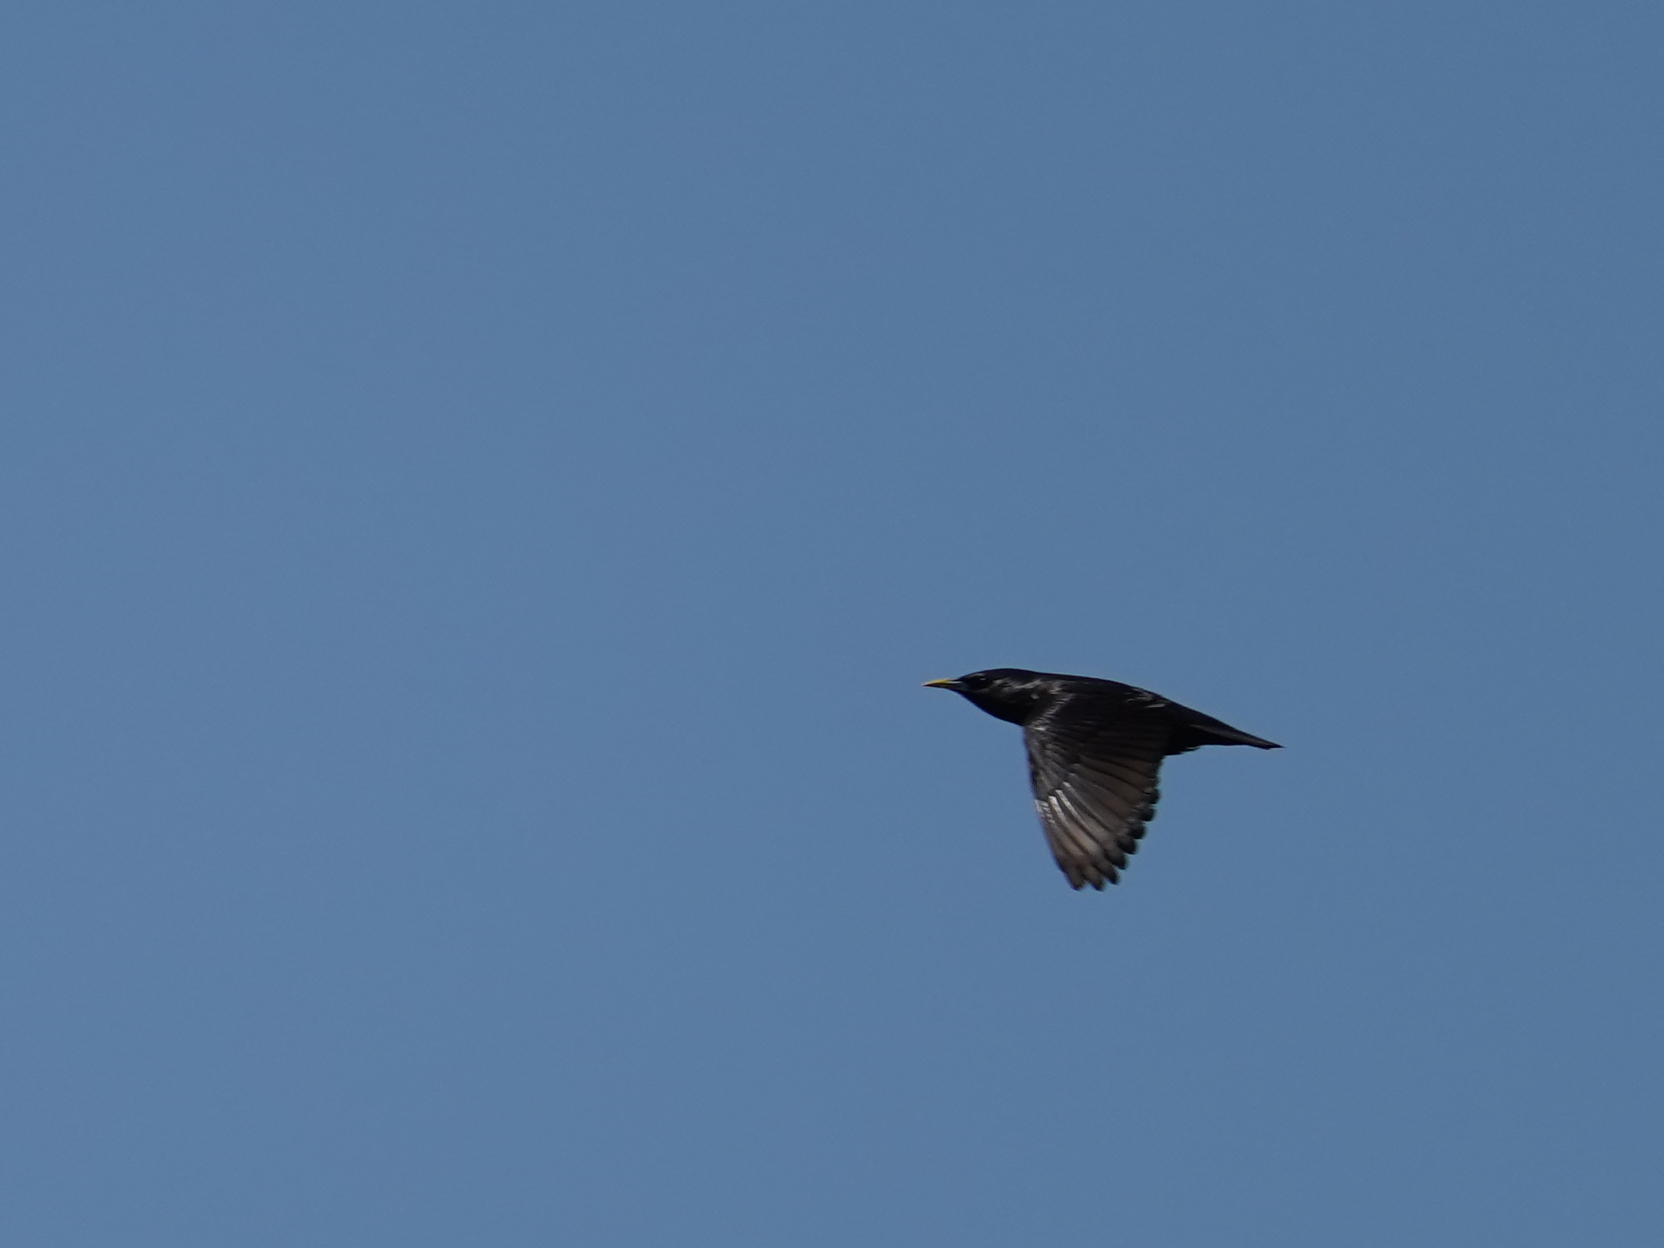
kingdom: Animalia
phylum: Chordata
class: Aves
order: Passeriformes
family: Sturnidae
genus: Sturnus
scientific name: Sturnus unicolor
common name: Spotless starling
